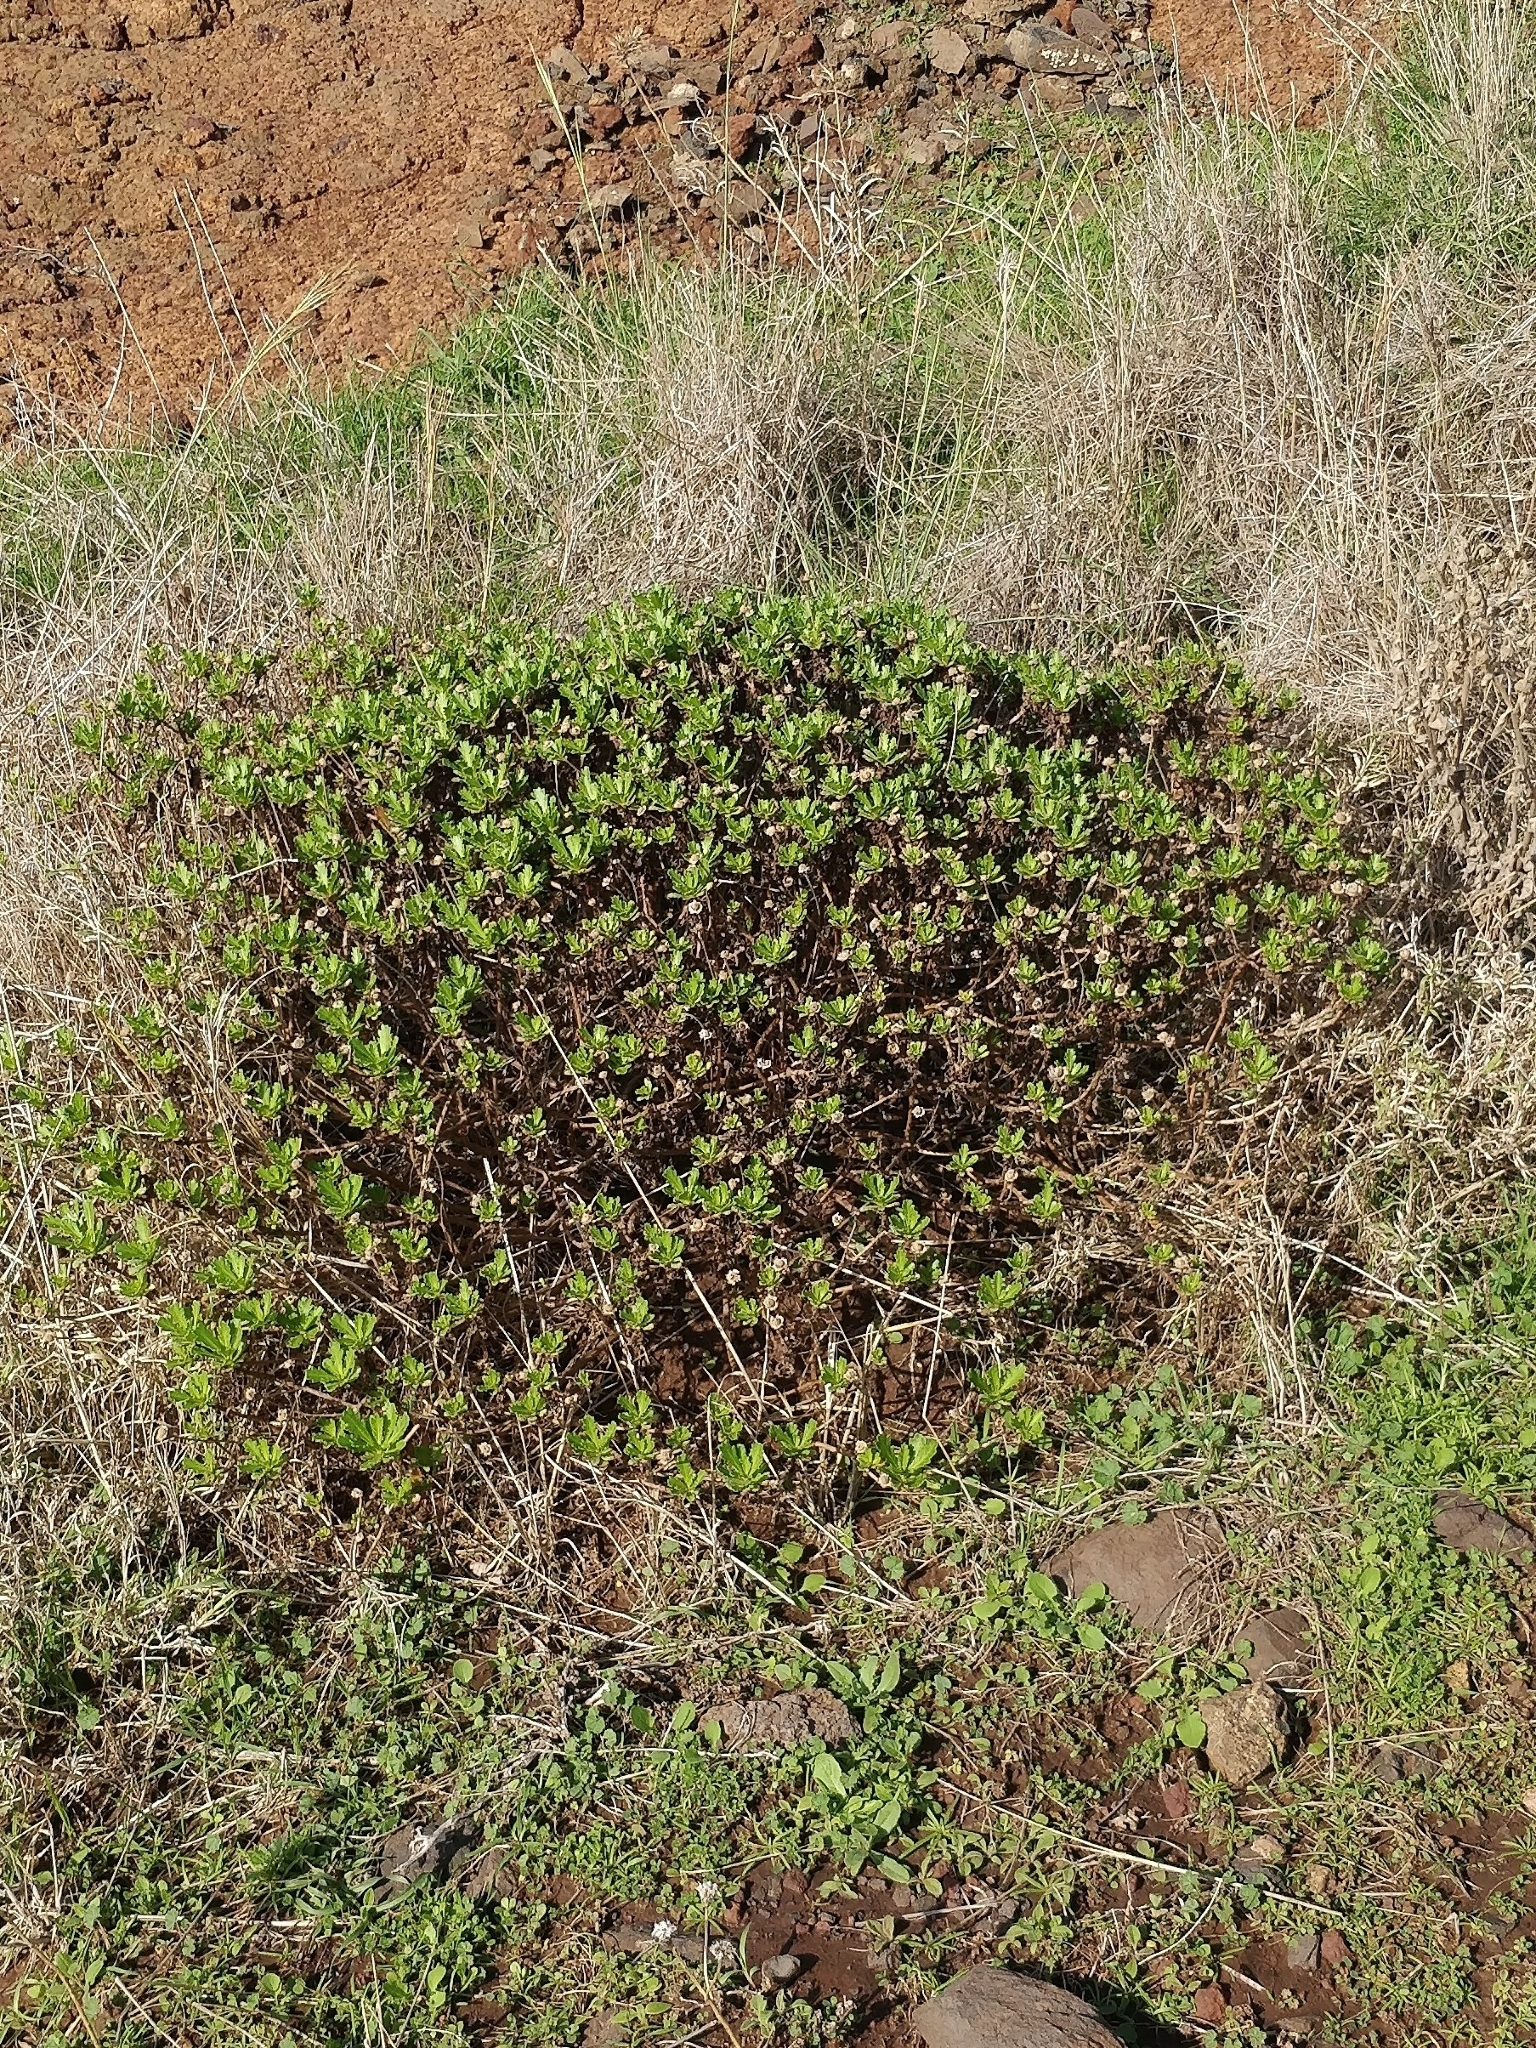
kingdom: Plantae
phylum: Tracheophyta
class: Magnoliopsida
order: Asterales
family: Asteraceae
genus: Argyranthemum
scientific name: Argyranthemum pinnatifidum
